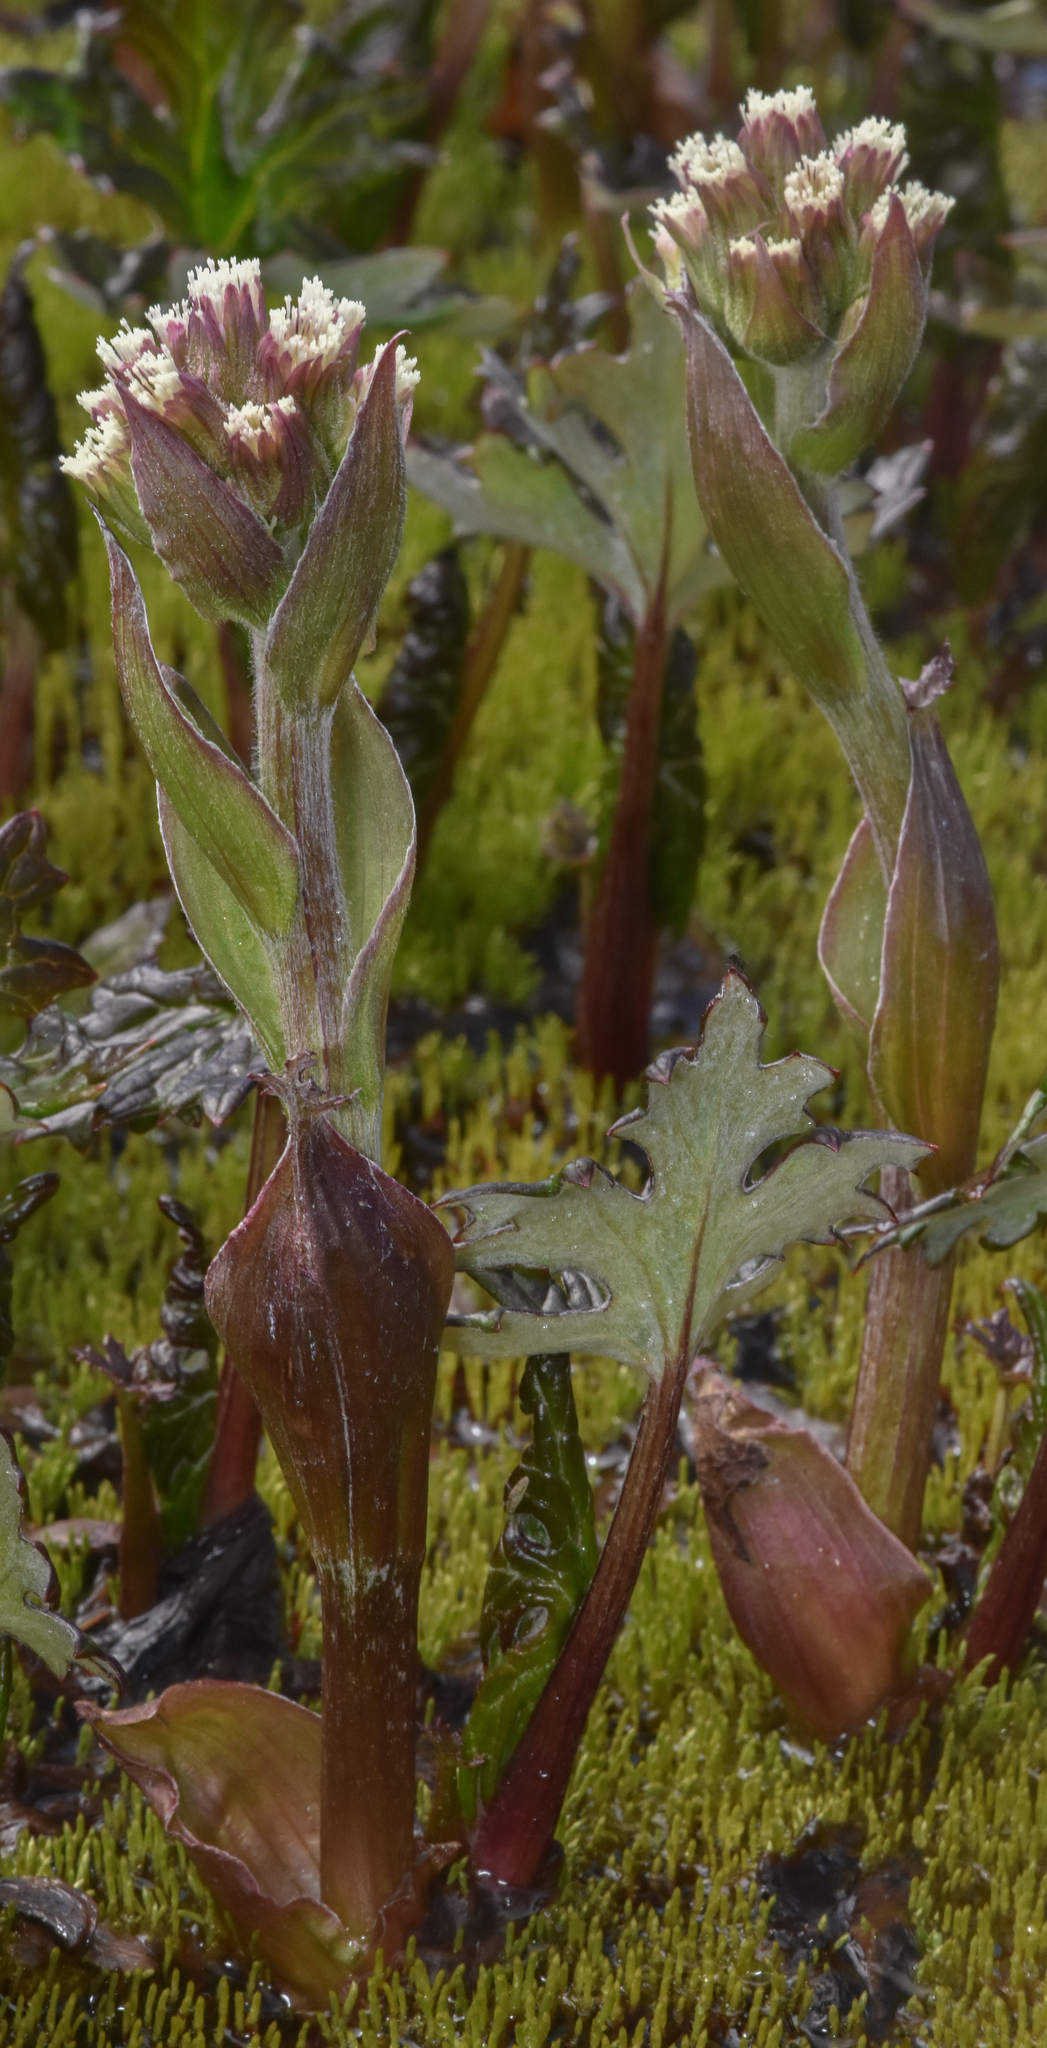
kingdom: Plantae
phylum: Tracheophyta
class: Magnoliopsida
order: Asterales
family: Asteraceae
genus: Petasites
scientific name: Petasites frigidus
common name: Arctic butterbur
